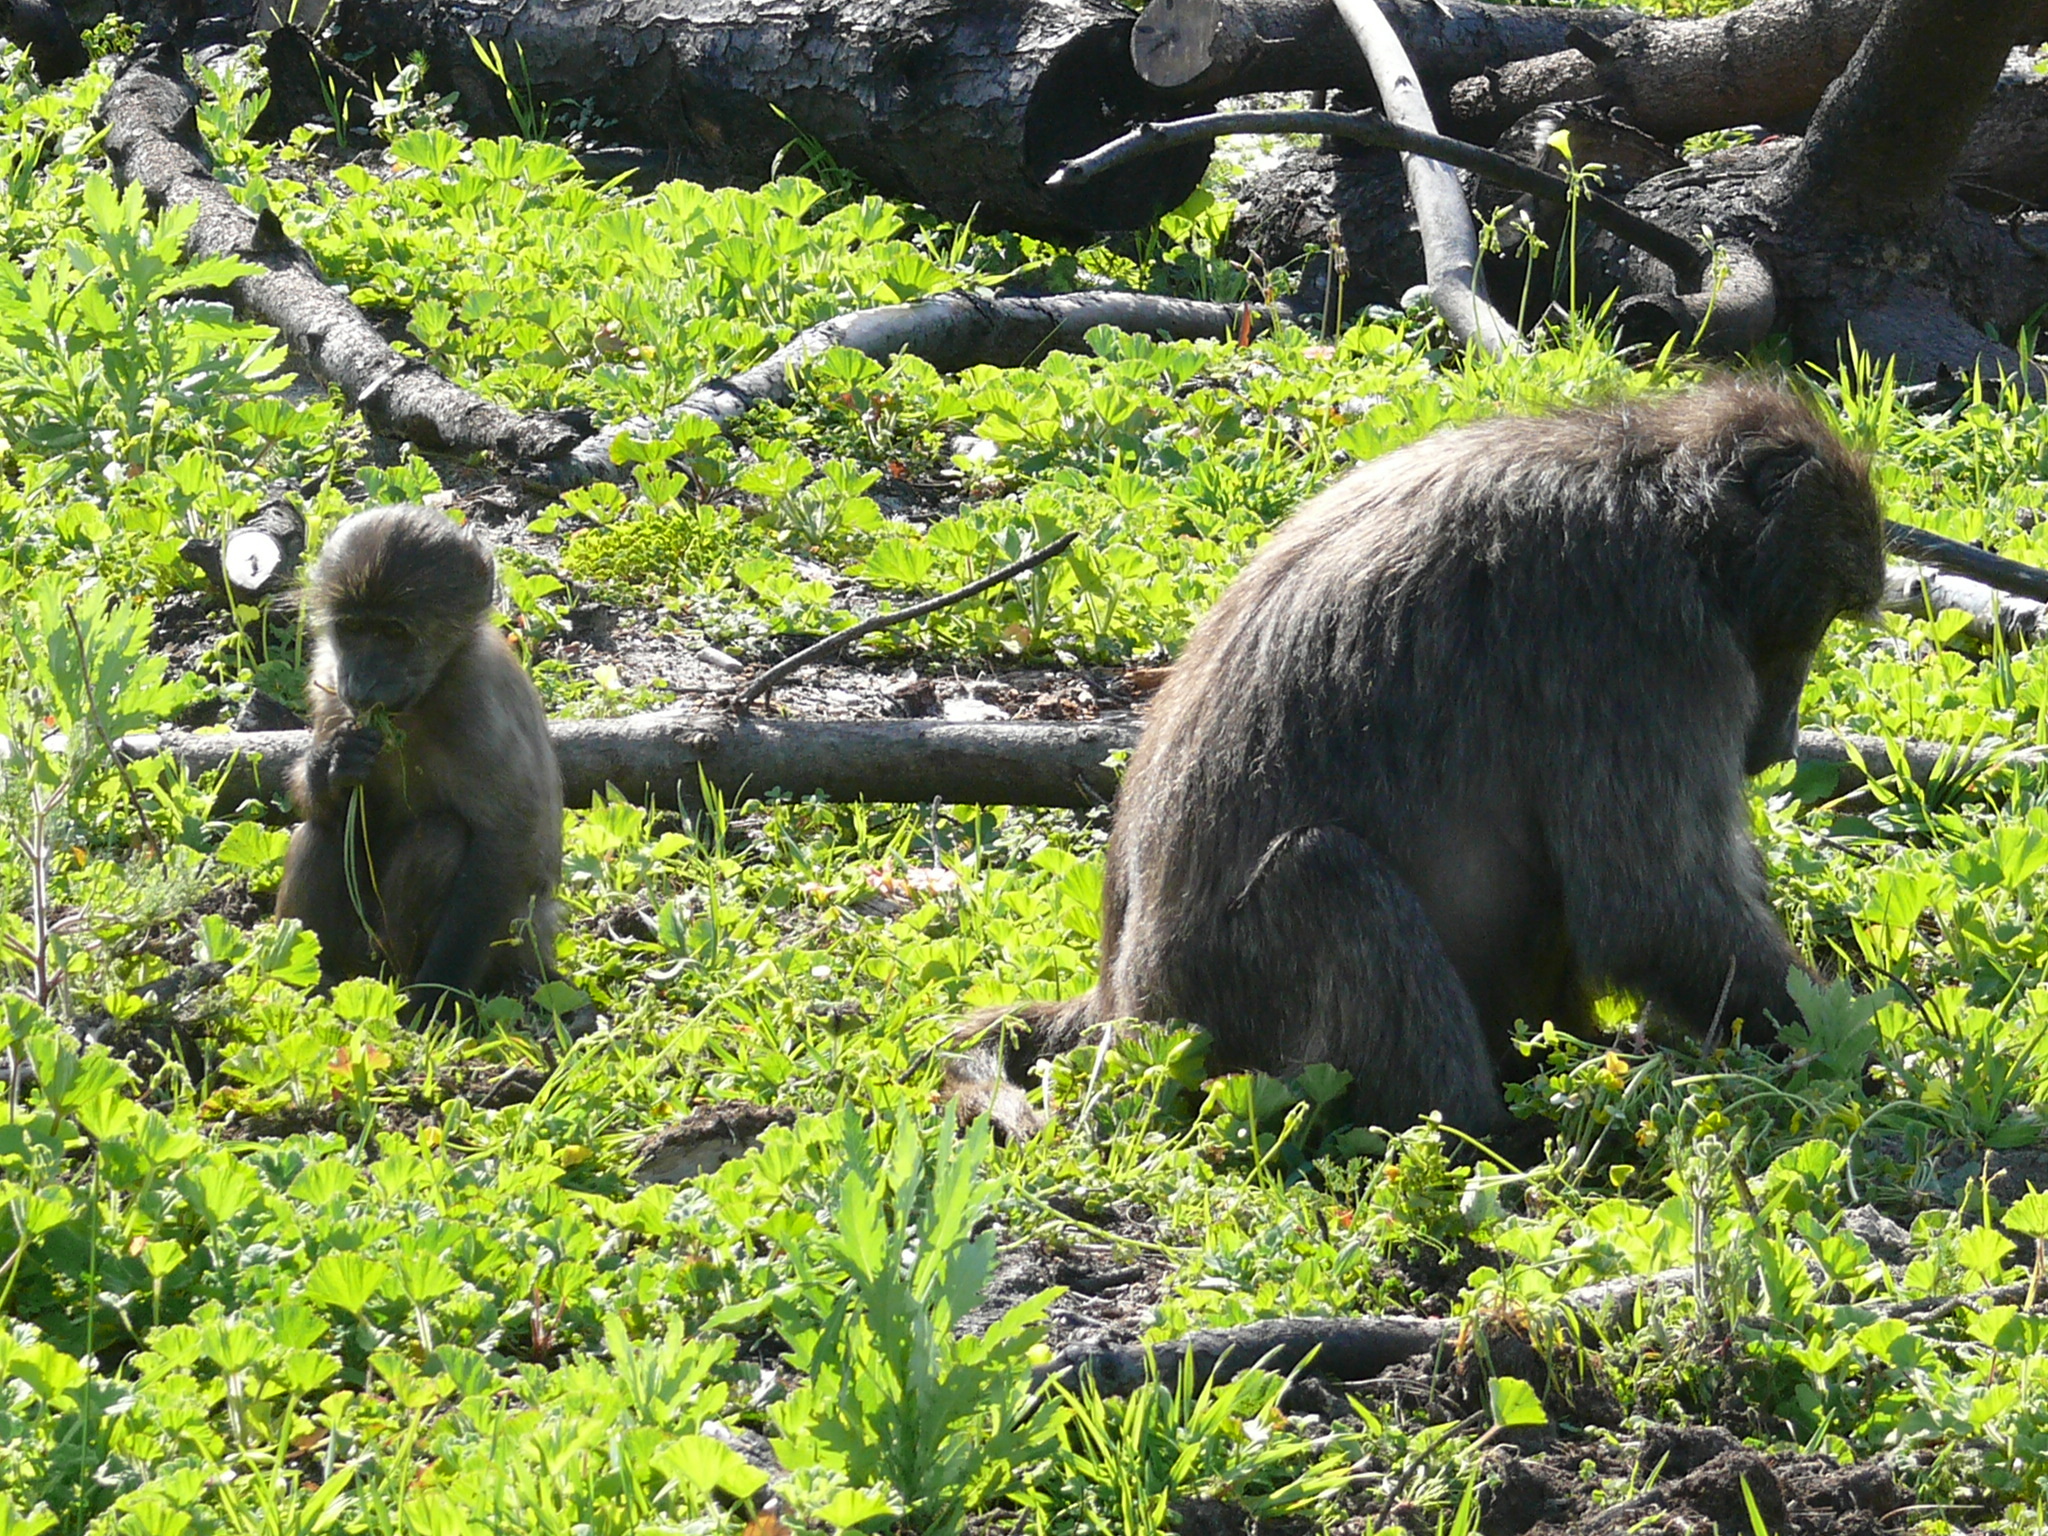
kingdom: Animalia
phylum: Chordata
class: Mammalia
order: Primates
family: Cercopithecidae
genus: Papio
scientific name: Papio ursinus
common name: Chacma baboon
